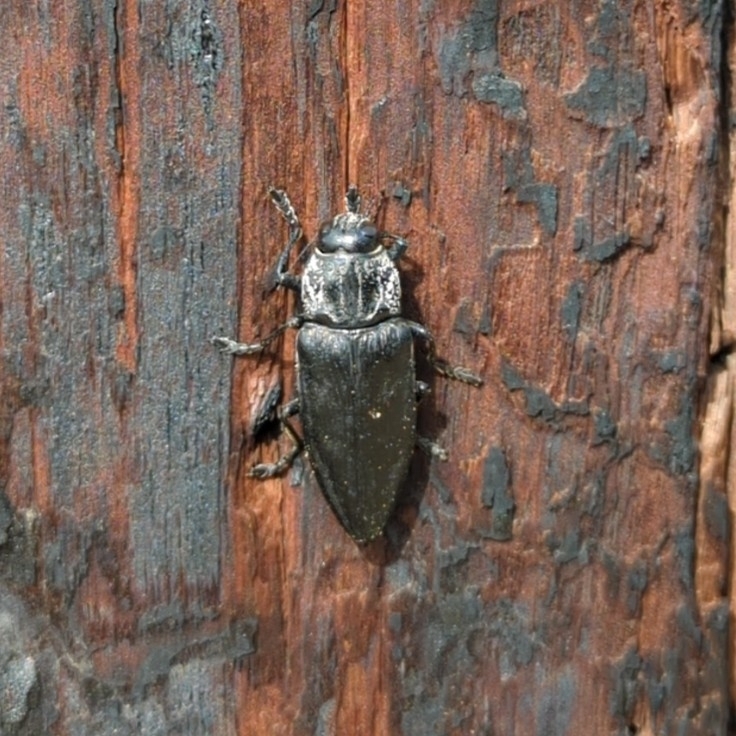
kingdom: Animalia
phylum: Arthropoda
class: Insecta
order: Coleoptera
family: Buprestidae
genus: Chalcophora
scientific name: Chalcophora detrita
